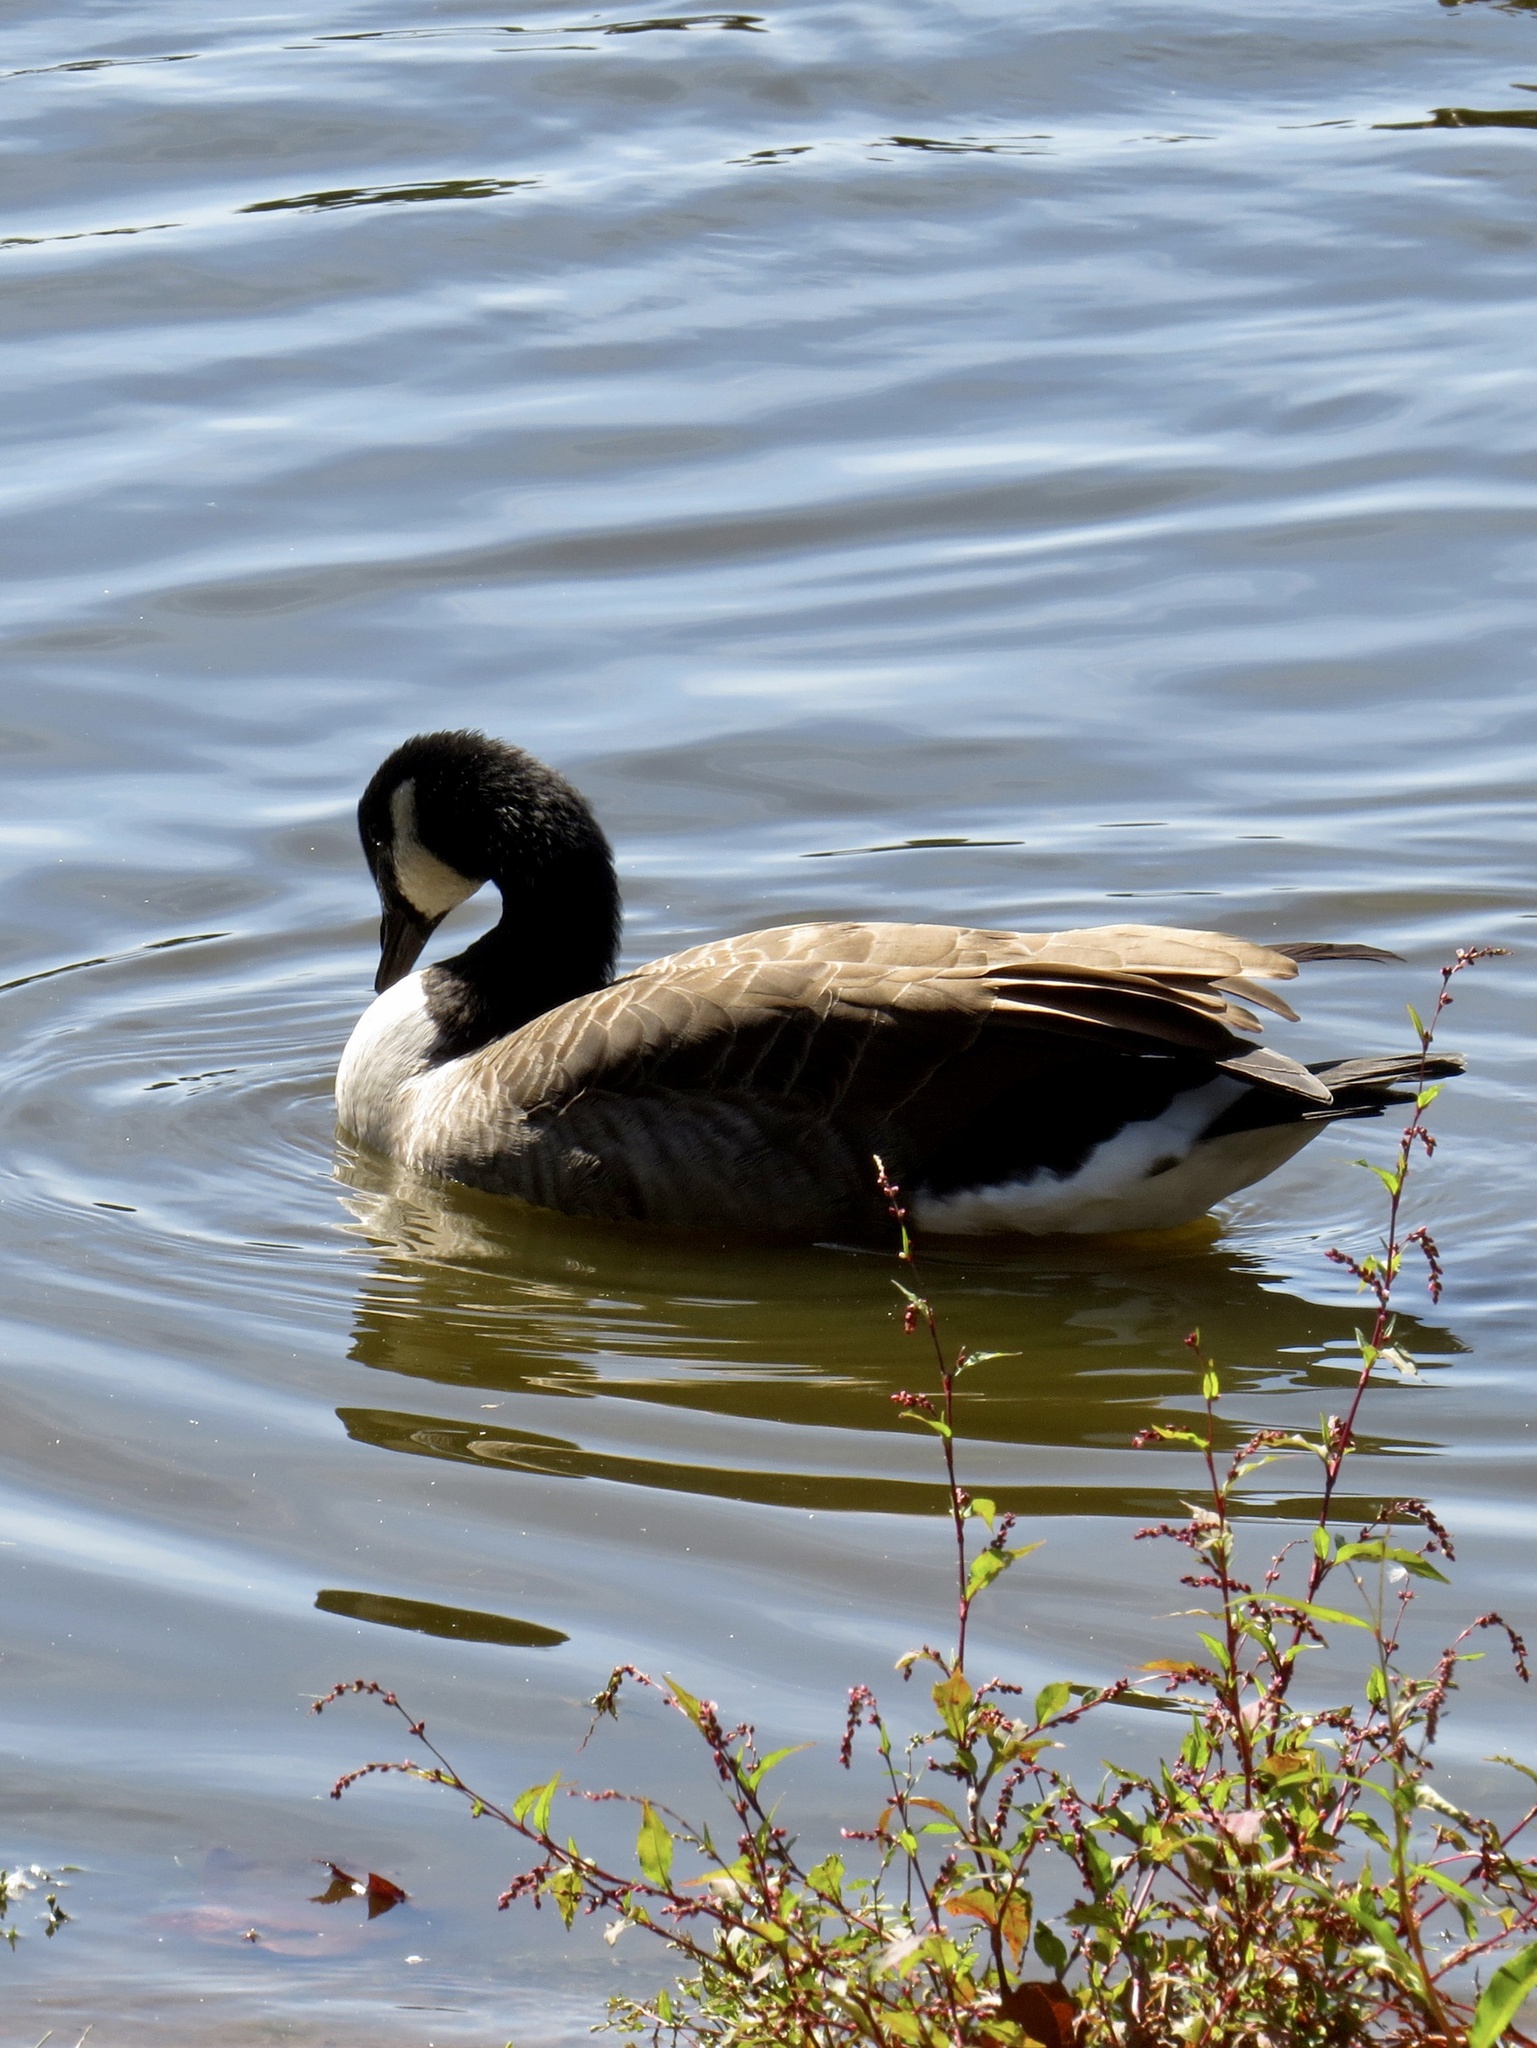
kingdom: Animalia
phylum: Chordata
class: Aves
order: Anseriformes
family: Anatidae
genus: Branta
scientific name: Branta canadensis
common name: Canada goose
